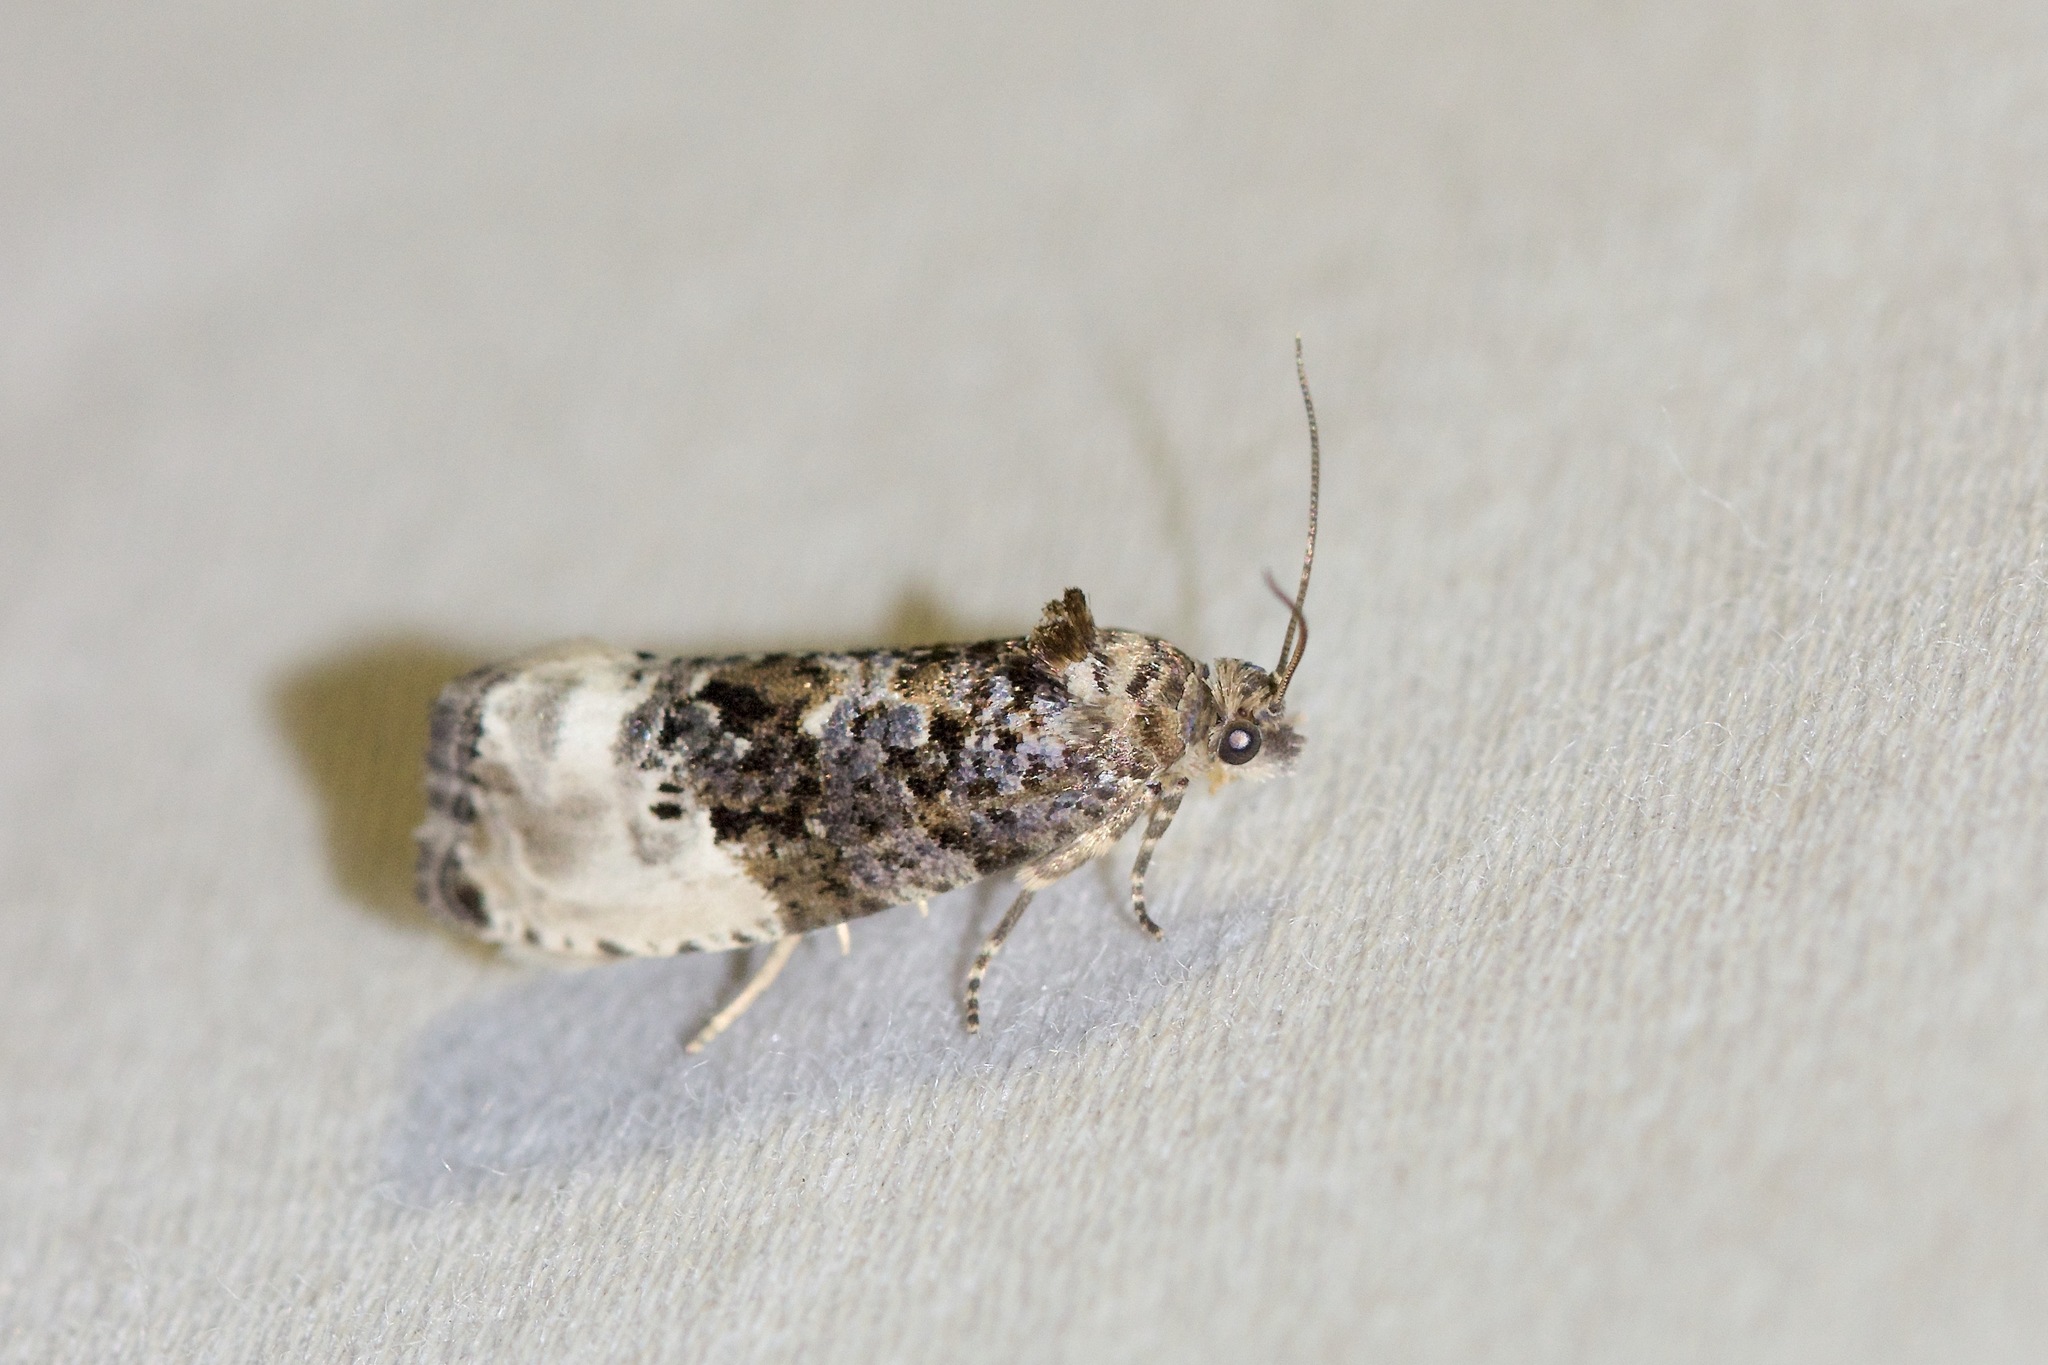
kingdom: Animalia
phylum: Arthropoda
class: Insecta
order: Lepidoptera
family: Tortricidae
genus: Hedya
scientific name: Hedya nubiferana
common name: Marbled orchard tortrix
